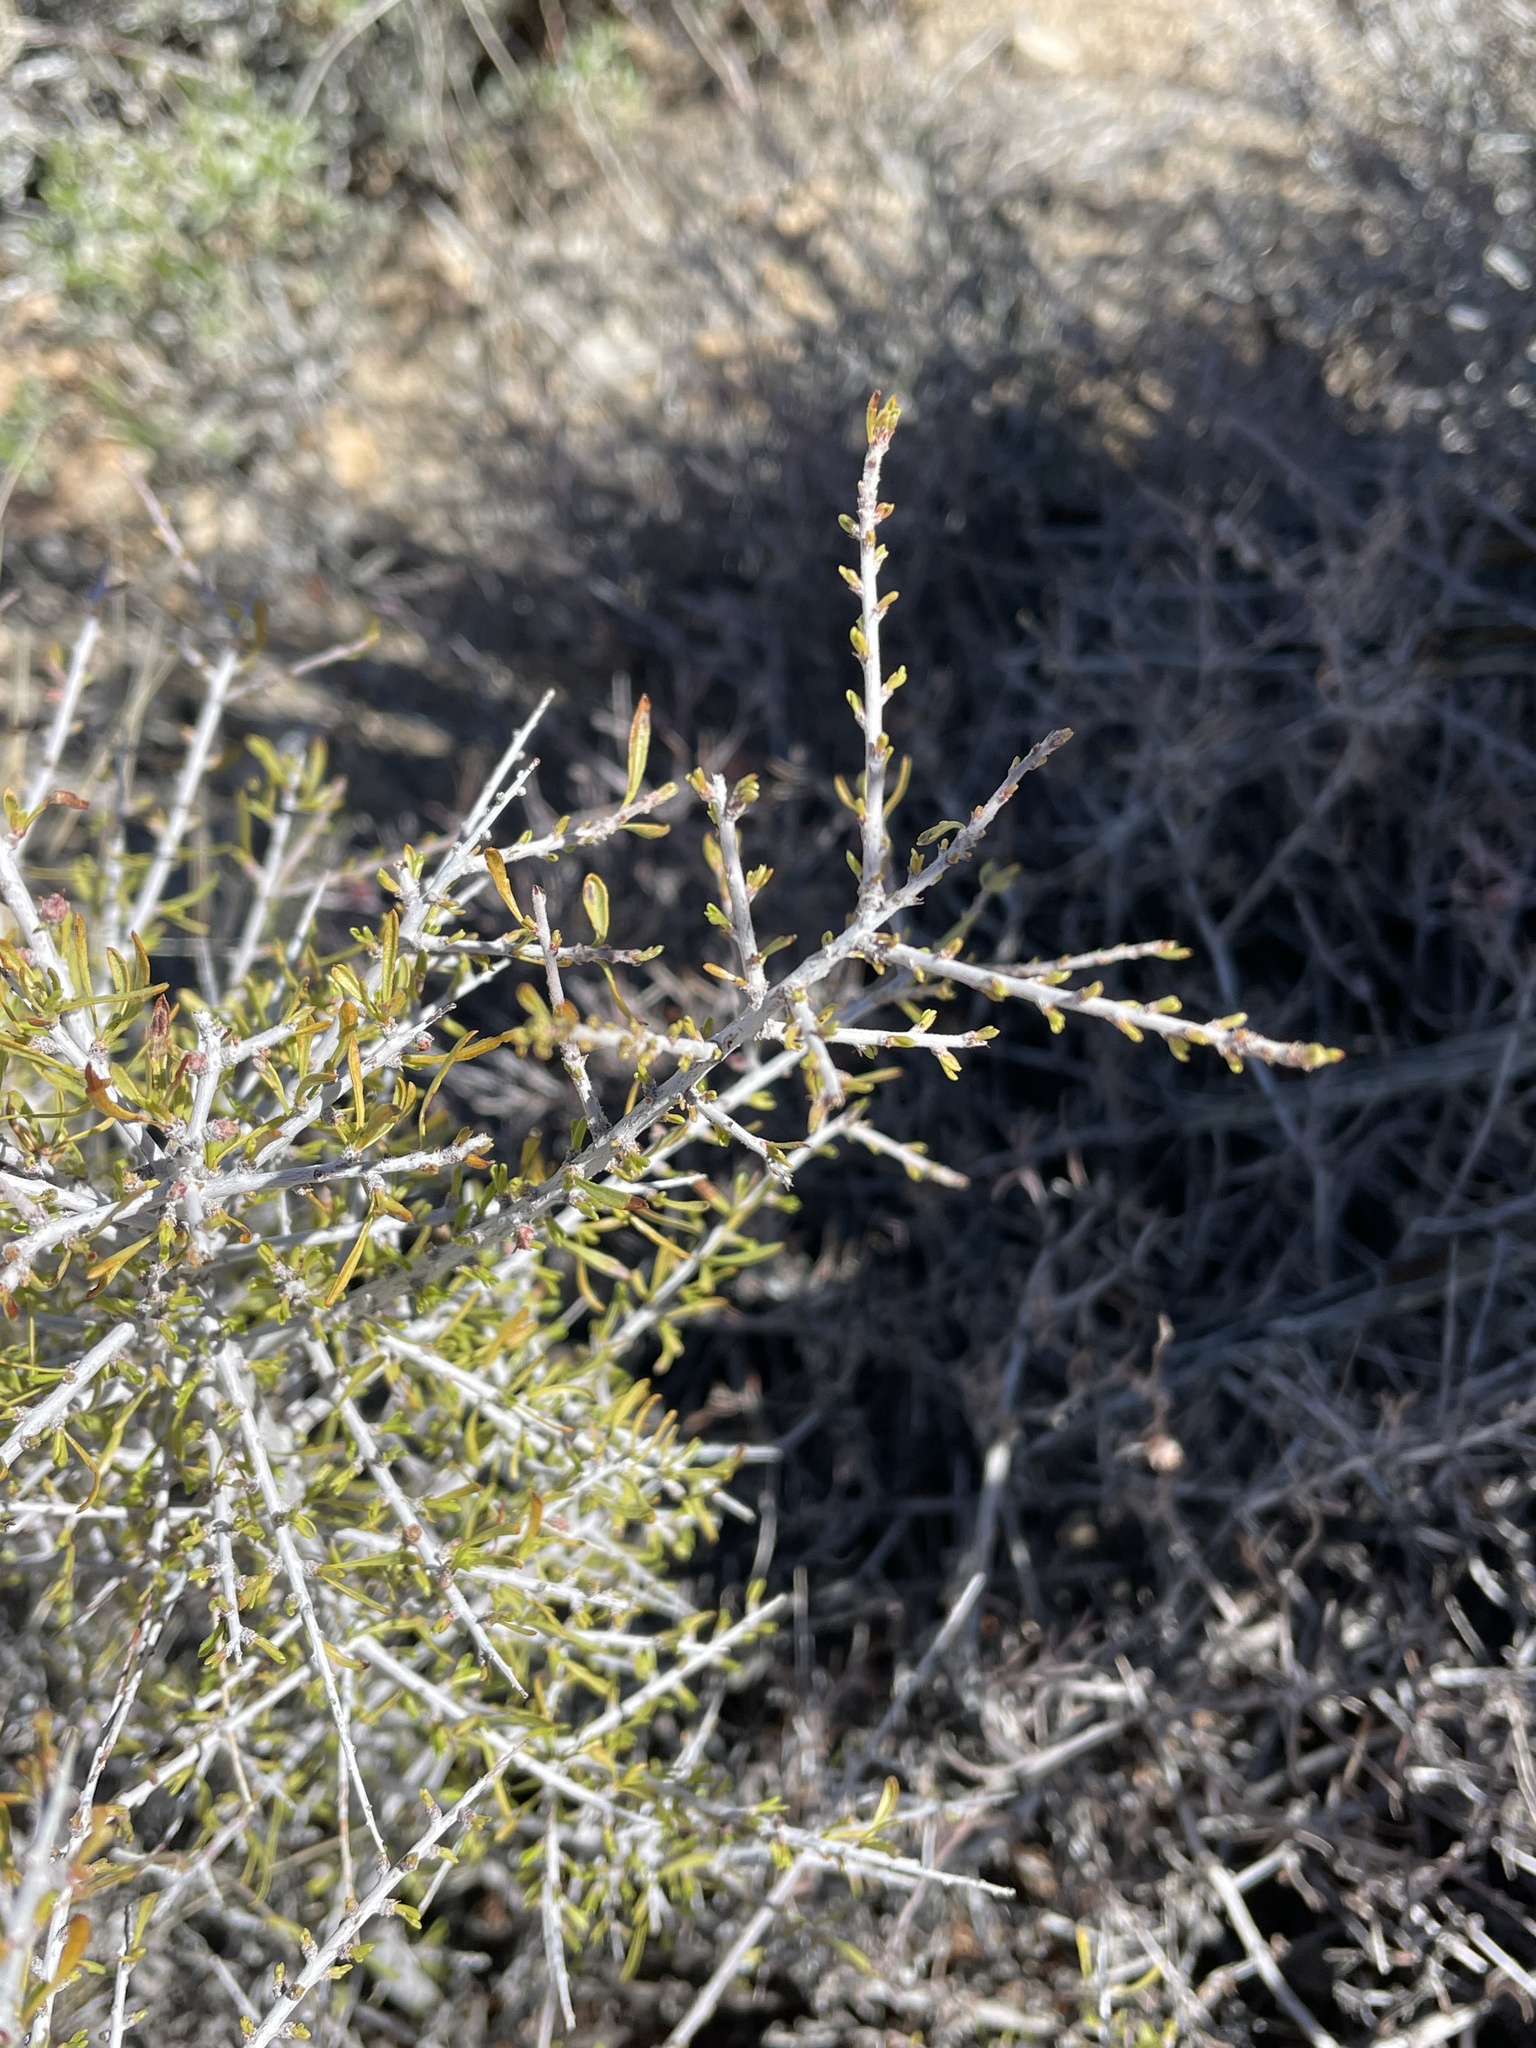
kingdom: Plantae
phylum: Tracheophyta
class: Magnoliopsida
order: Rosales
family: Rosaceae
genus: Prunus
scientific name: Prunus fasciculata
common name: Desert almond
